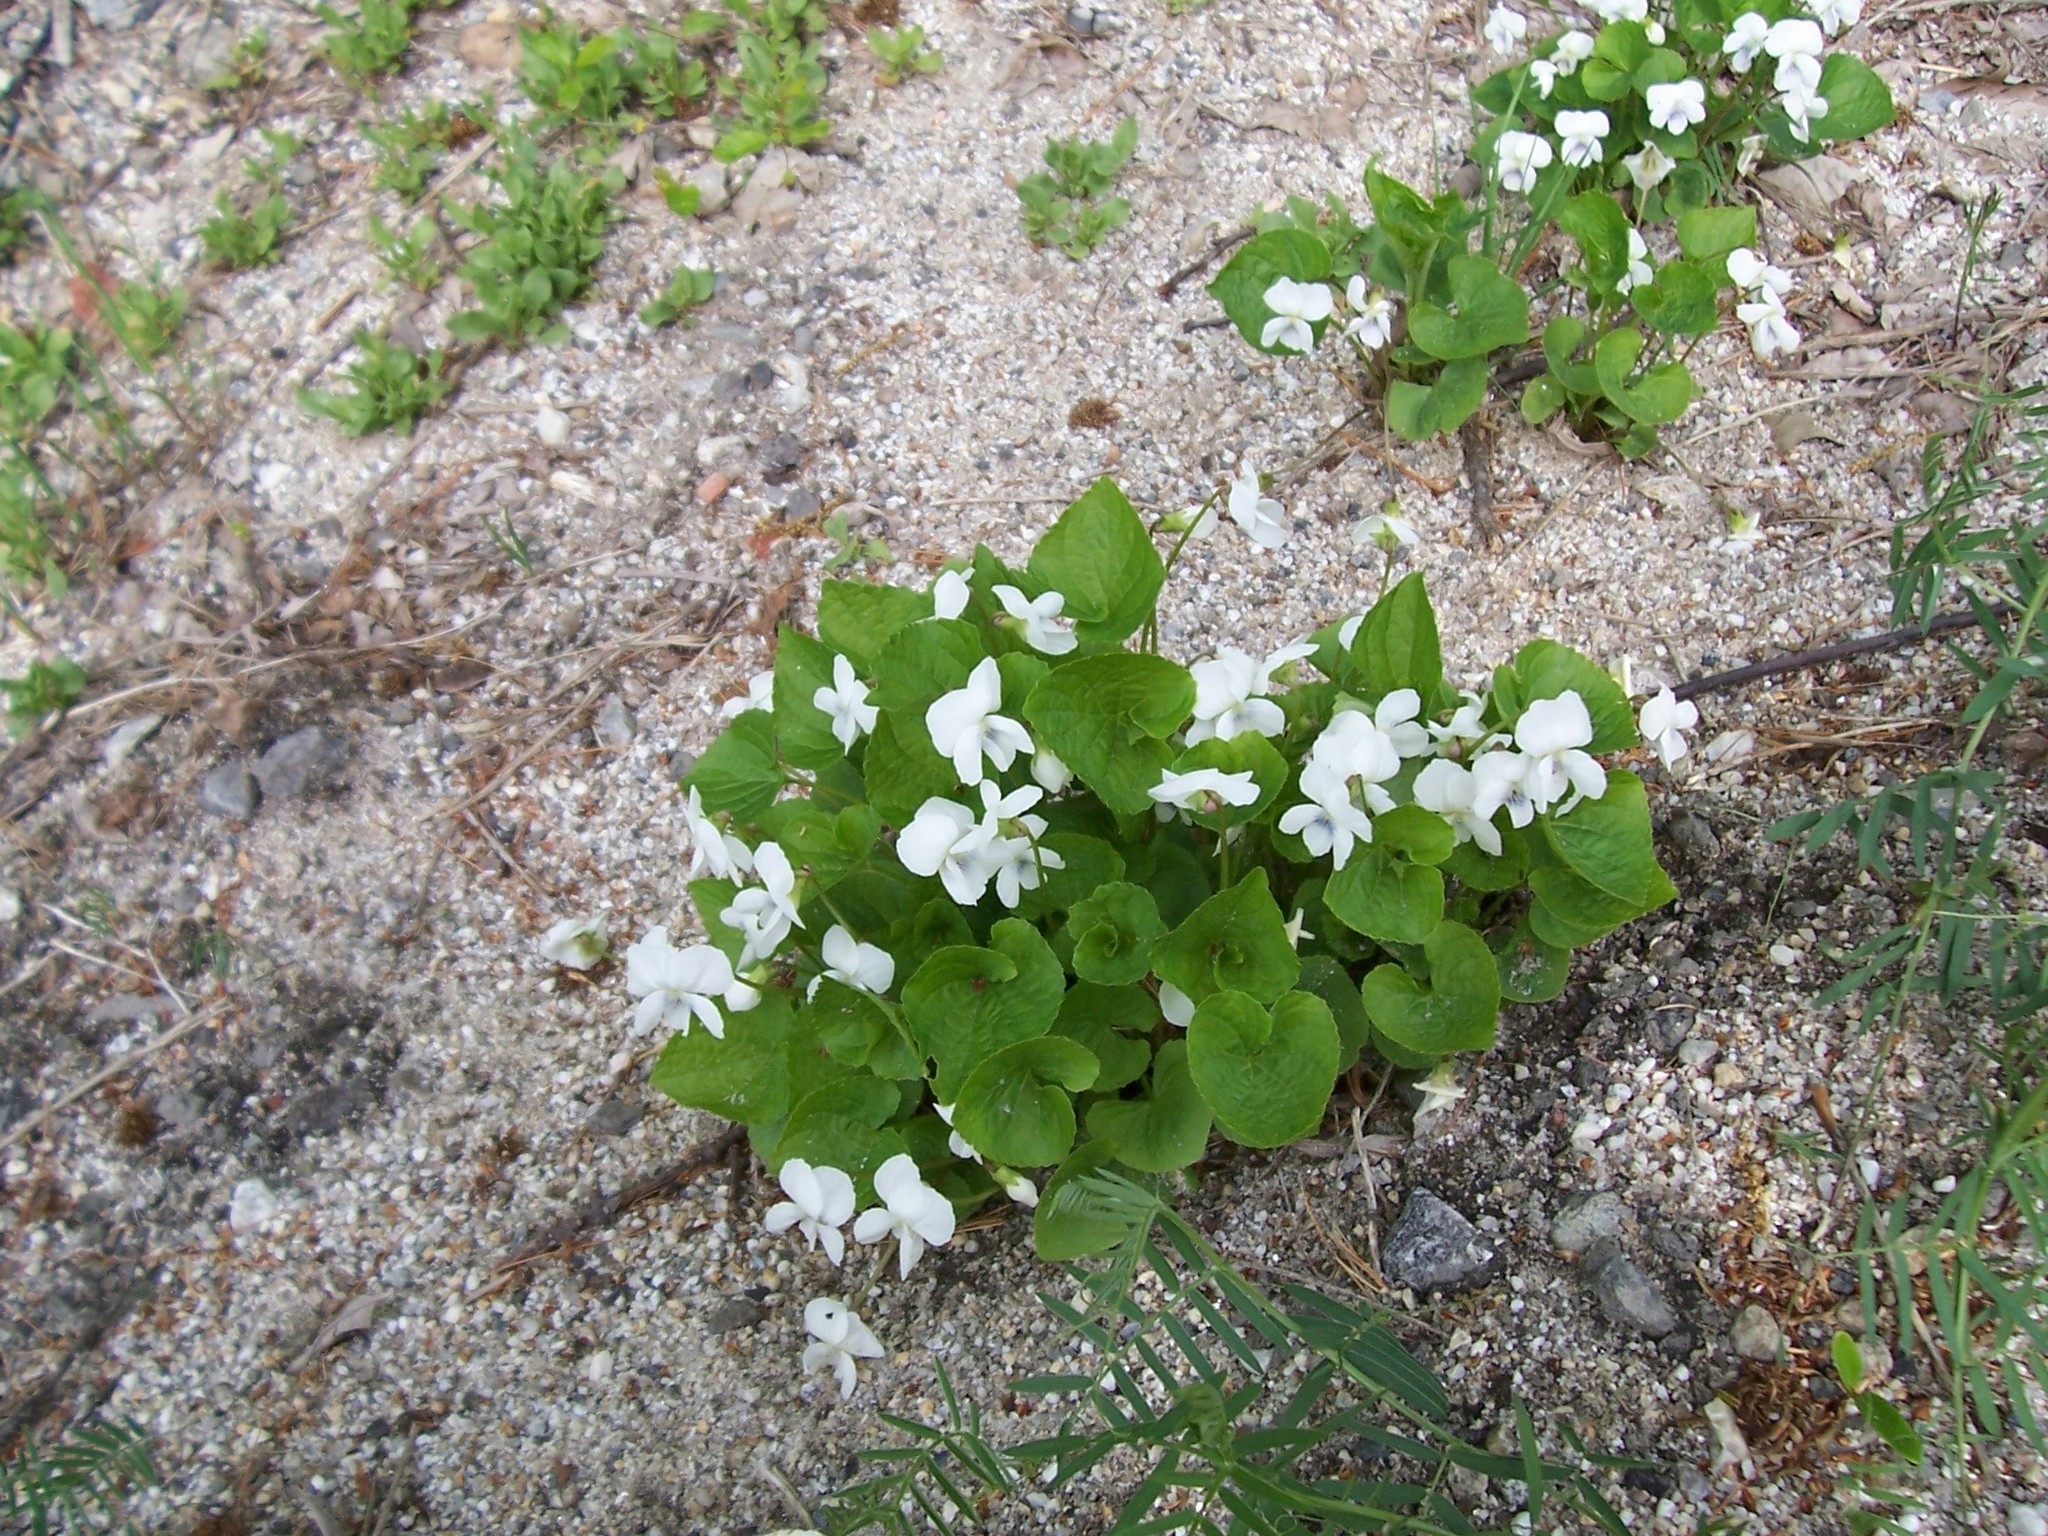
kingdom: Plantae
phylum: Tracheophyta
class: Magnoliopsida
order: Malpighiales
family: Violaceae
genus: Viola
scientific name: Viola minuscula
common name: Northern white violet
